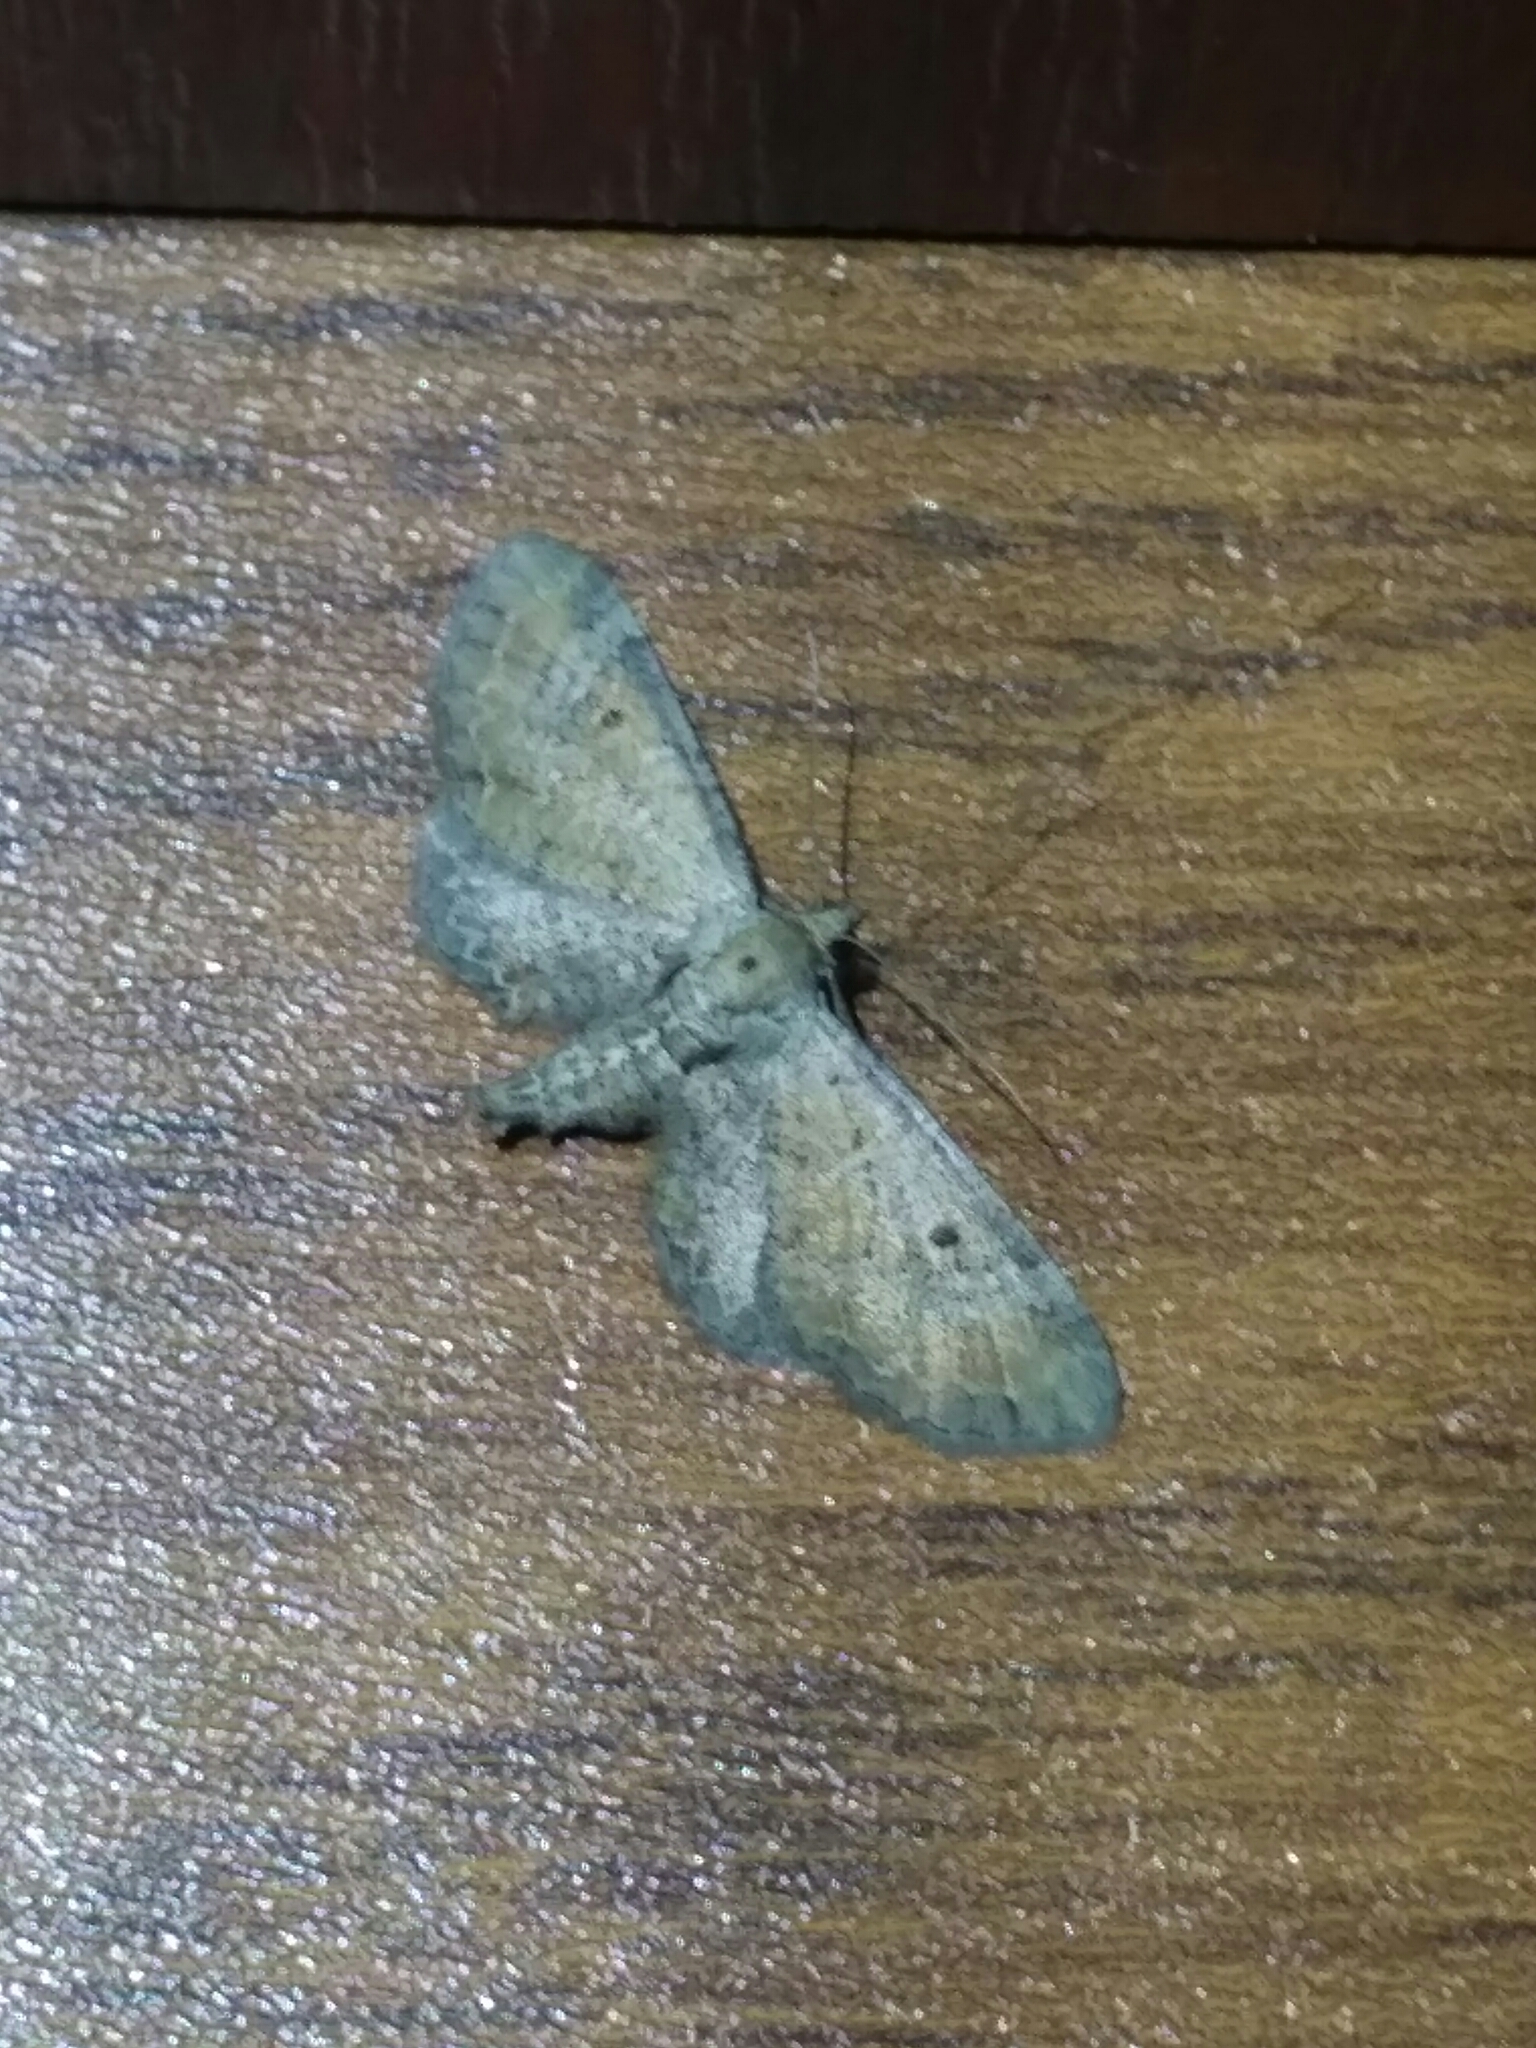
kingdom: Animalia
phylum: Arthropoda
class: Insecta
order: Lepidoptera
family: Geometridae
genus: Eupithecia
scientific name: Eupithecia simpliciata
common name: Plain pug
